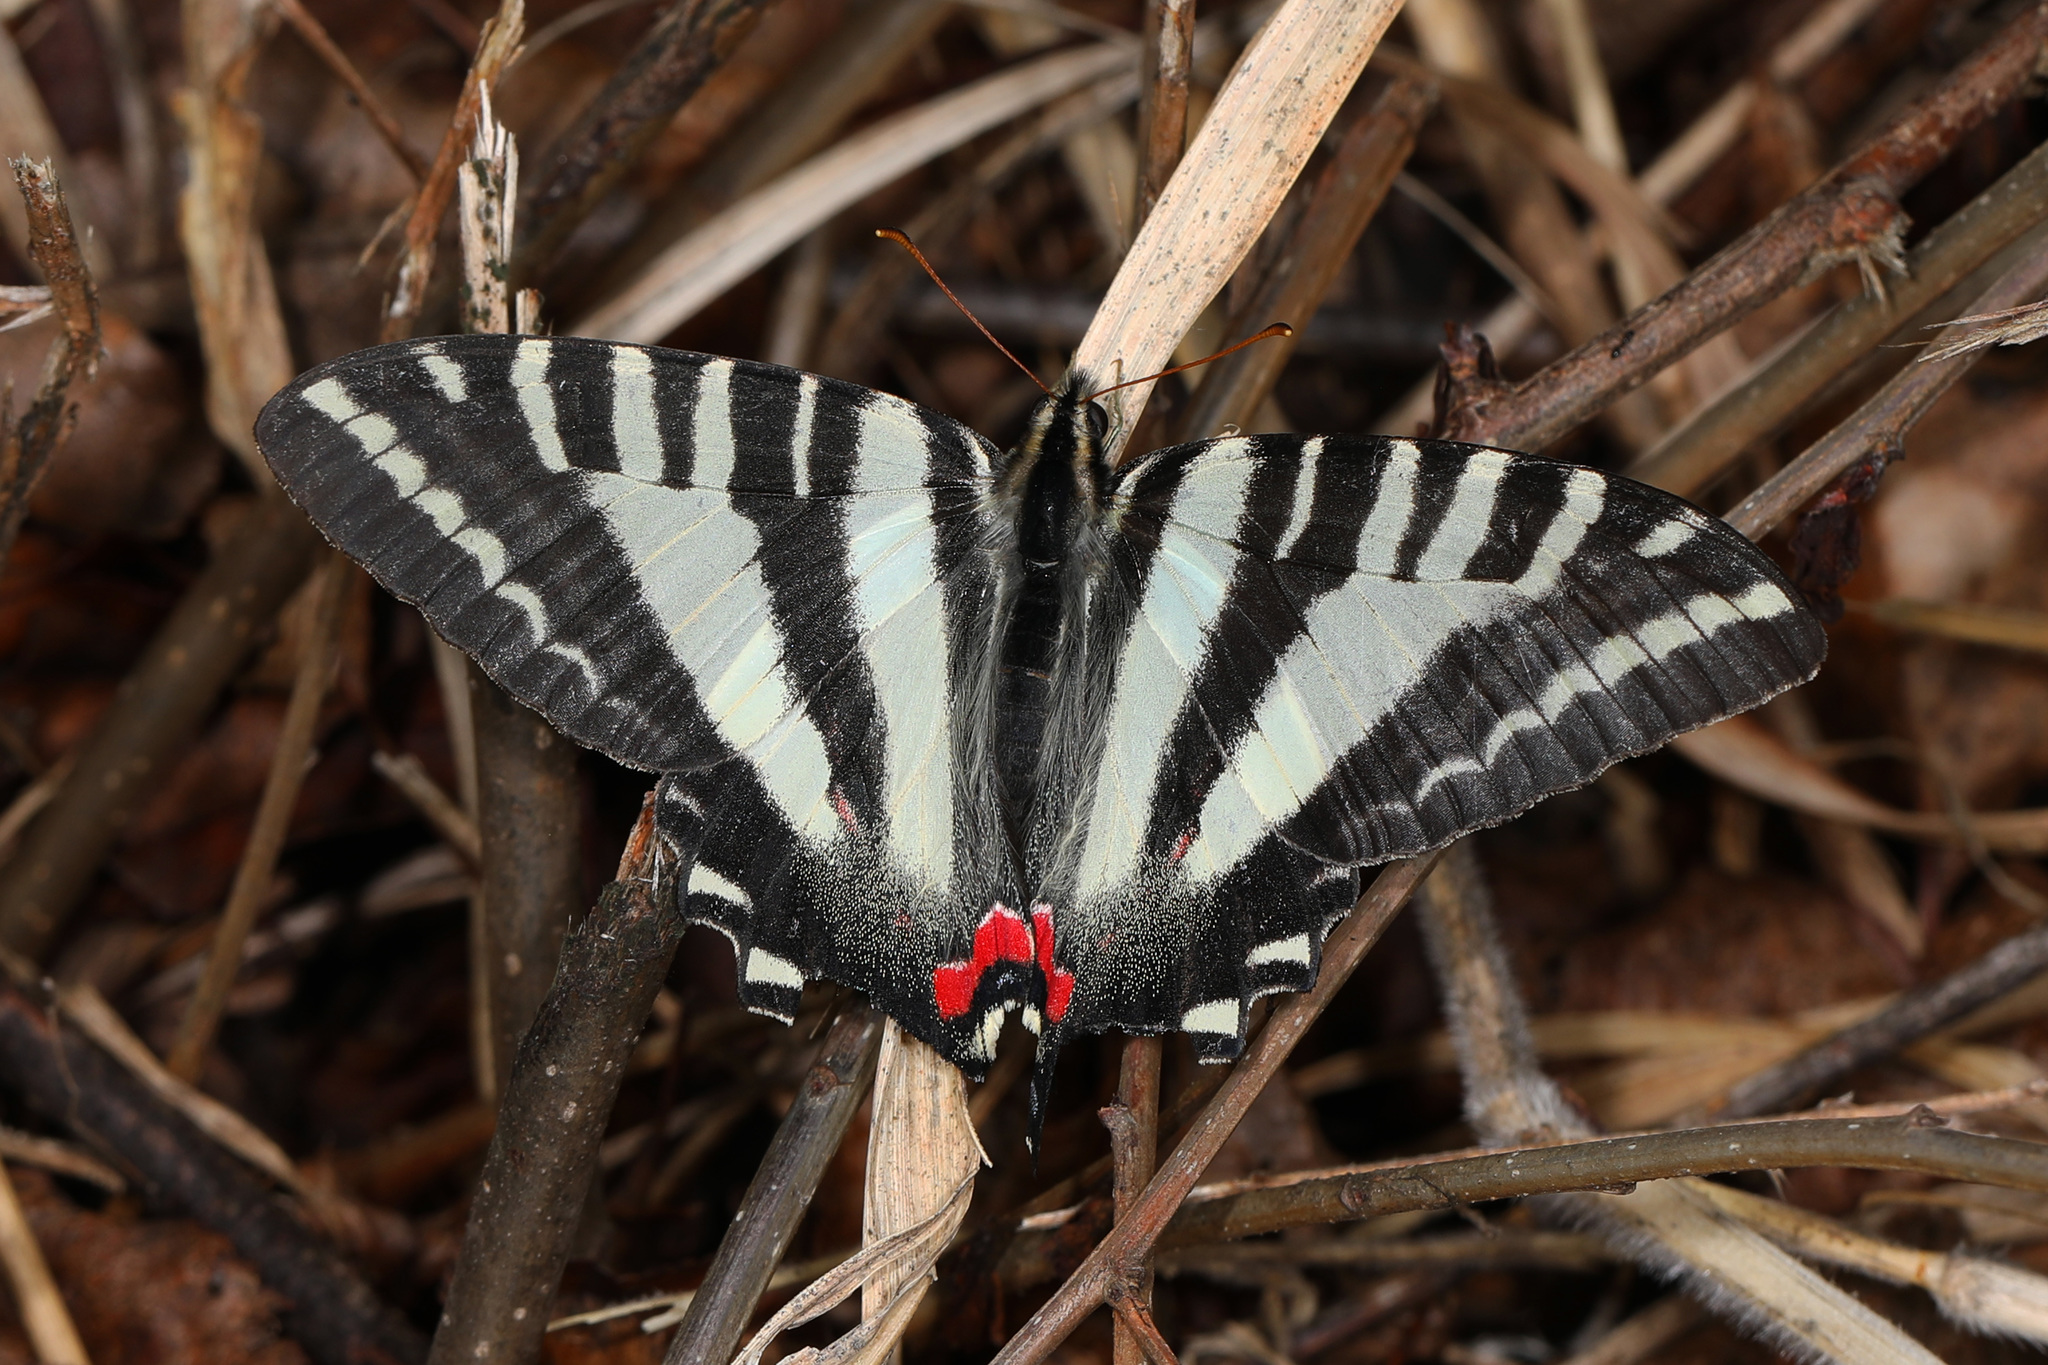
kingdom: Animalia
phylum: Arthropoda
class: Insecta
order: Lepidoptera
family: Papilionidae
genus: Protographium
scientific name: Protographium marcellus
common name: Zebra swallowtail
